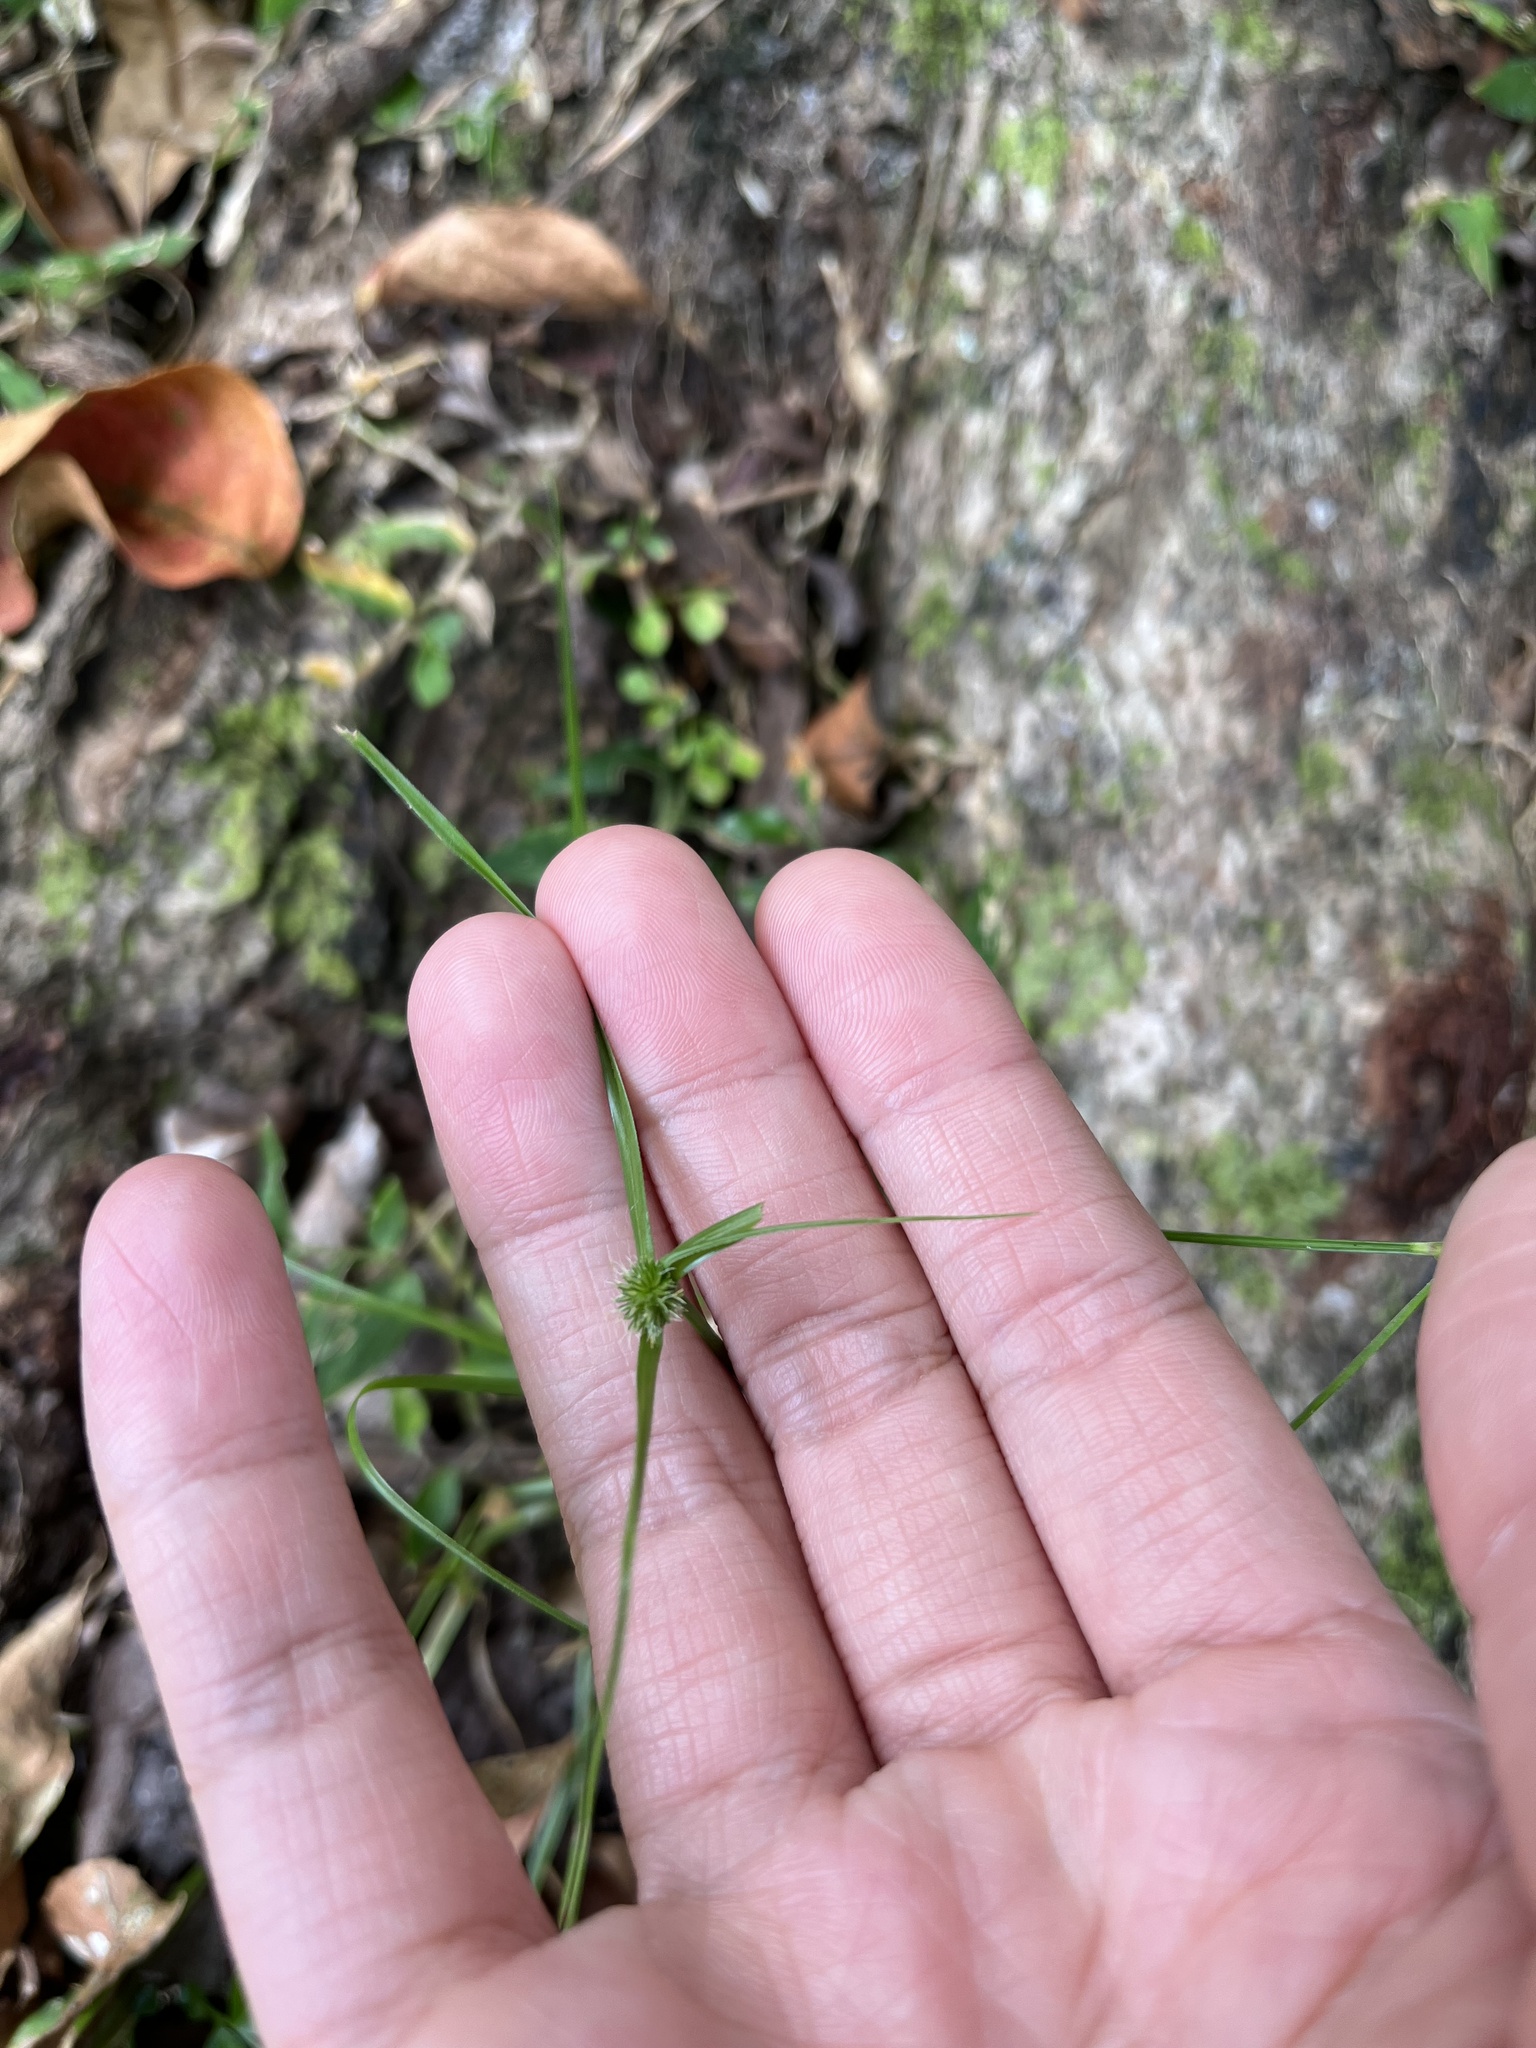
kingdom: Plantae
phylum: Tracheophyta
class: Liliopsida
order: Poales
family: Cyperaceae
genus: Cyperus
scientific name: Cyperus brevifolius
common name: Globe kyllinga
